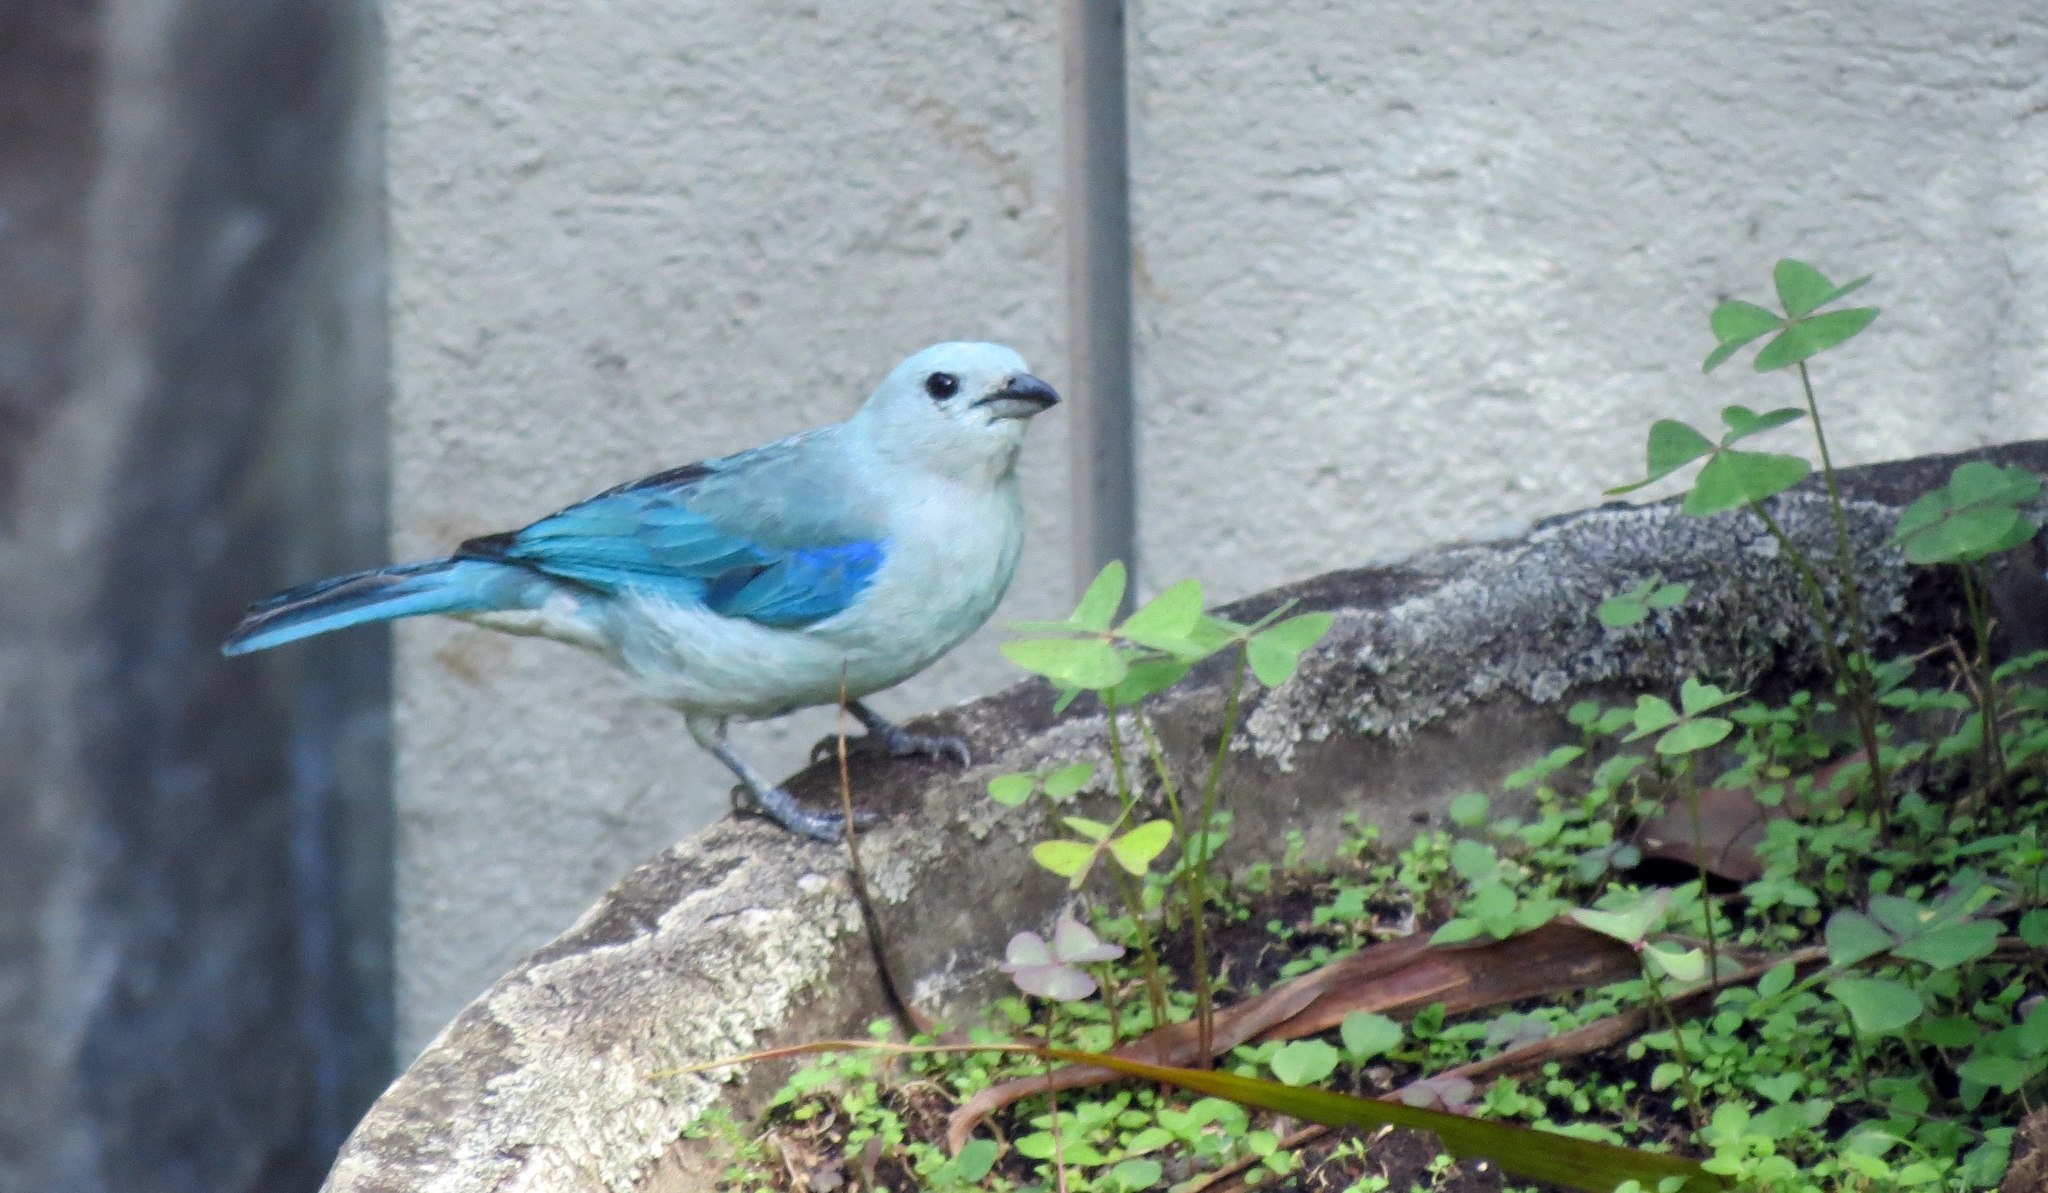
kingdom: Animalia
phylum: Chordata
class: Aves
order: Passeriformes
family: Thraupidae
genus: Thraupis
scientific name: Thraupis episcopus
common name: Blue-grey tanager
